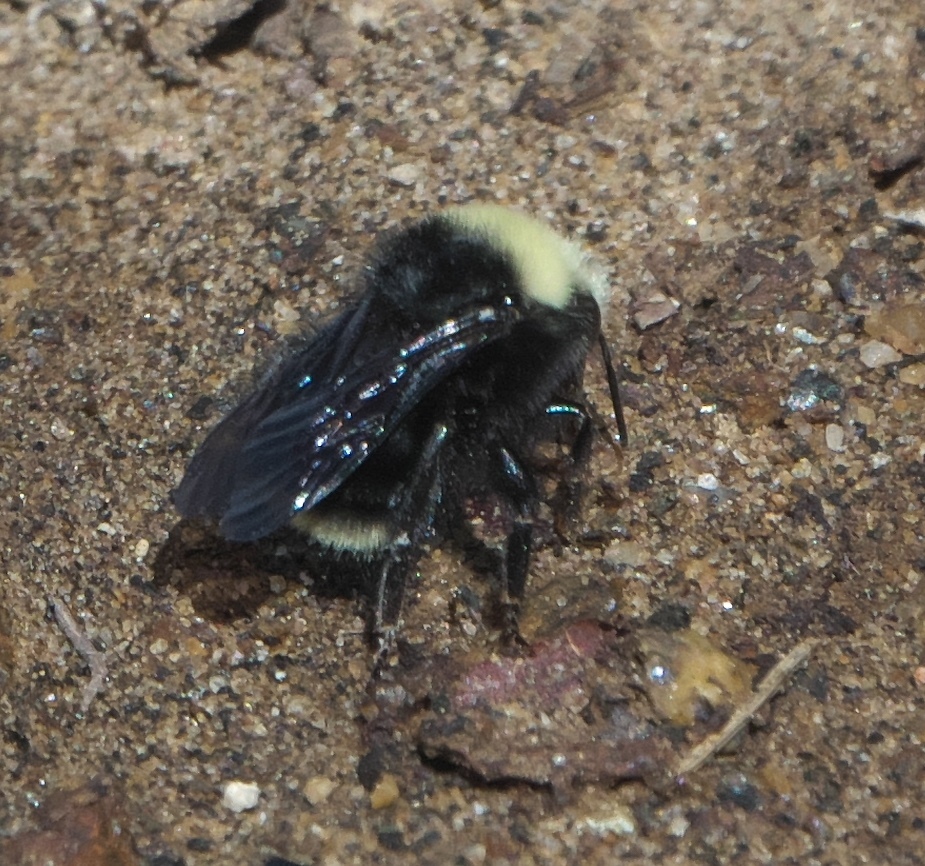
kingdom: Animalia
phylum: Arthropoda
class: Insecta
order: Hymenoptera
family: Apidae
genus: Bombus
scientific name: Bombus vosnesenskii
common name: Vosnesensky bumble bee
